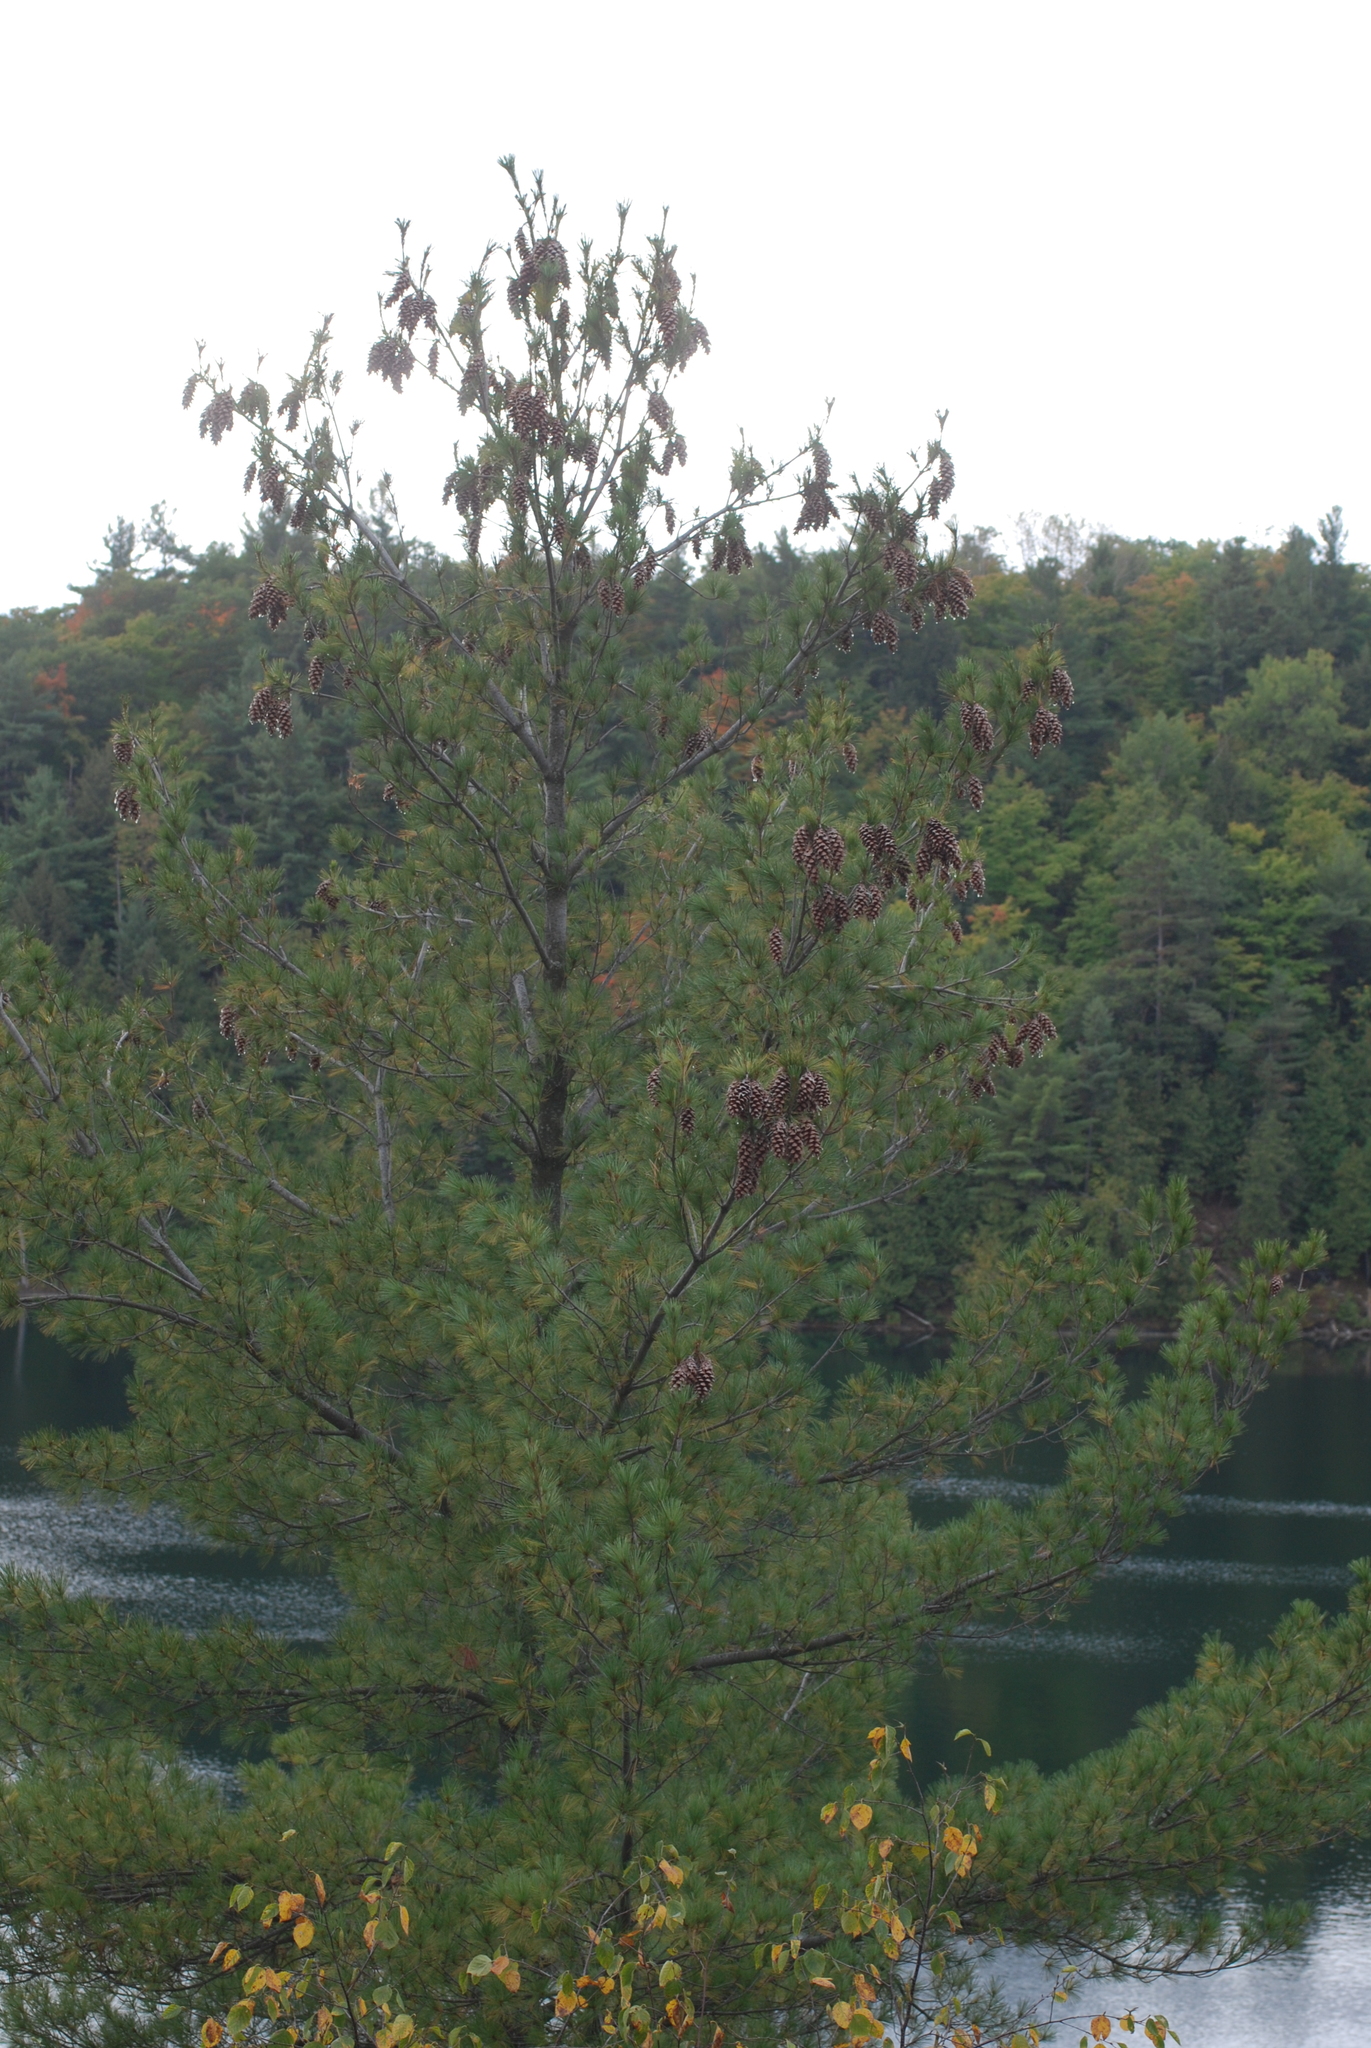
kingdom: Plantae
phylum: Tracheophyta
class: Pinopsida
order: Pinales
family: Pinaceae
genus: Pinus
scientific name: Pinus strobus
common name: Weymouth pine
